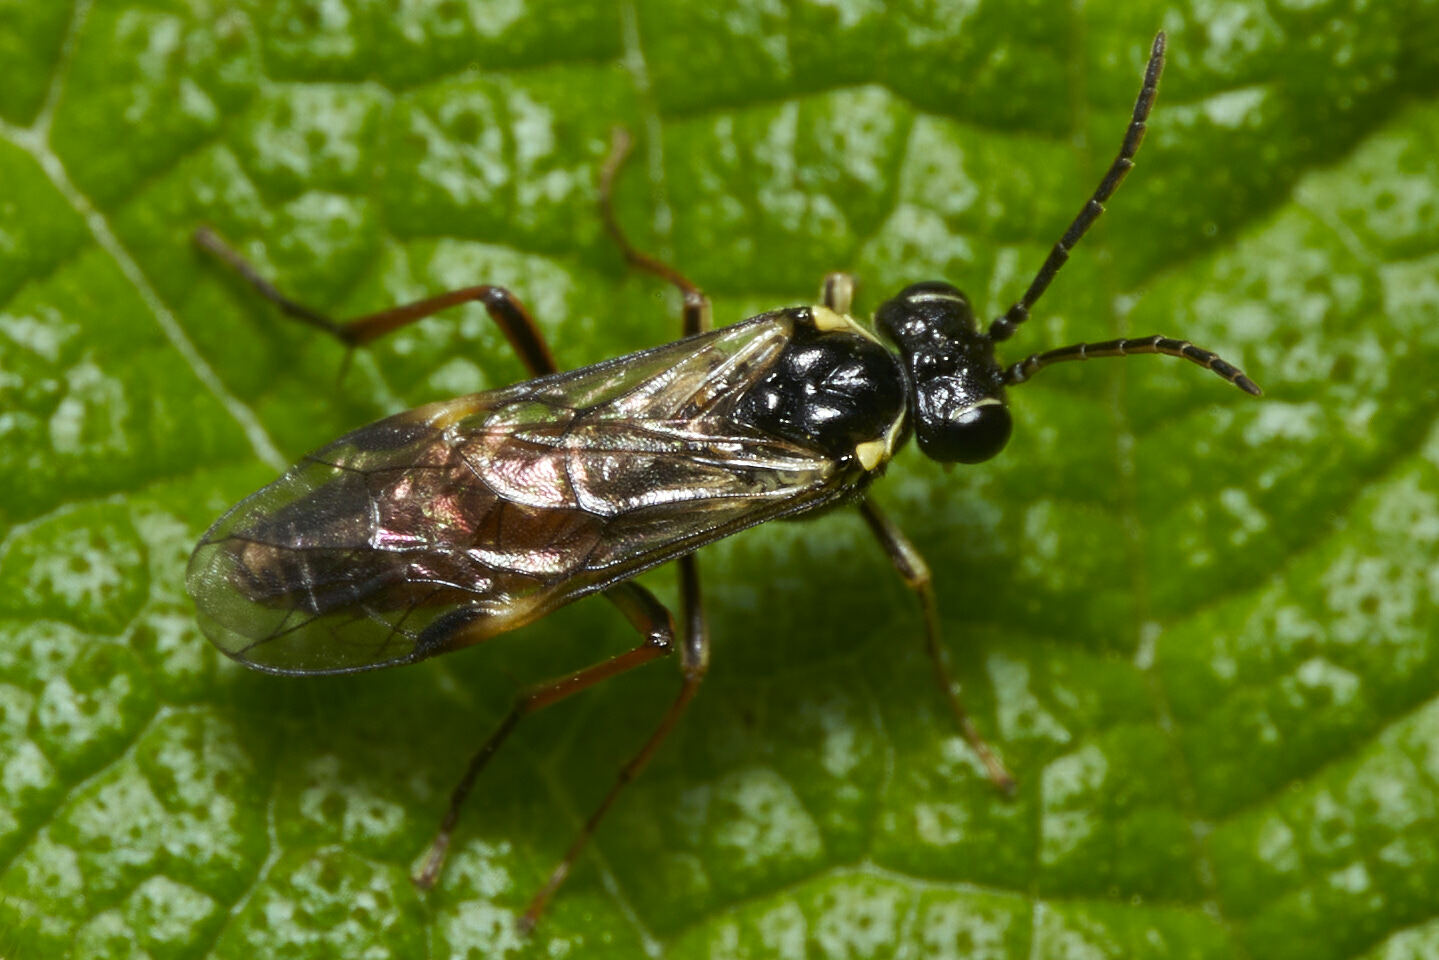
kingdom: Animalia
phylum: Arthropoda
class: Insecta
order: Hymenoptera
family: Tenthredinidae
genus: Aglaostigma
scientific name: Aglaostigma aucupariae
